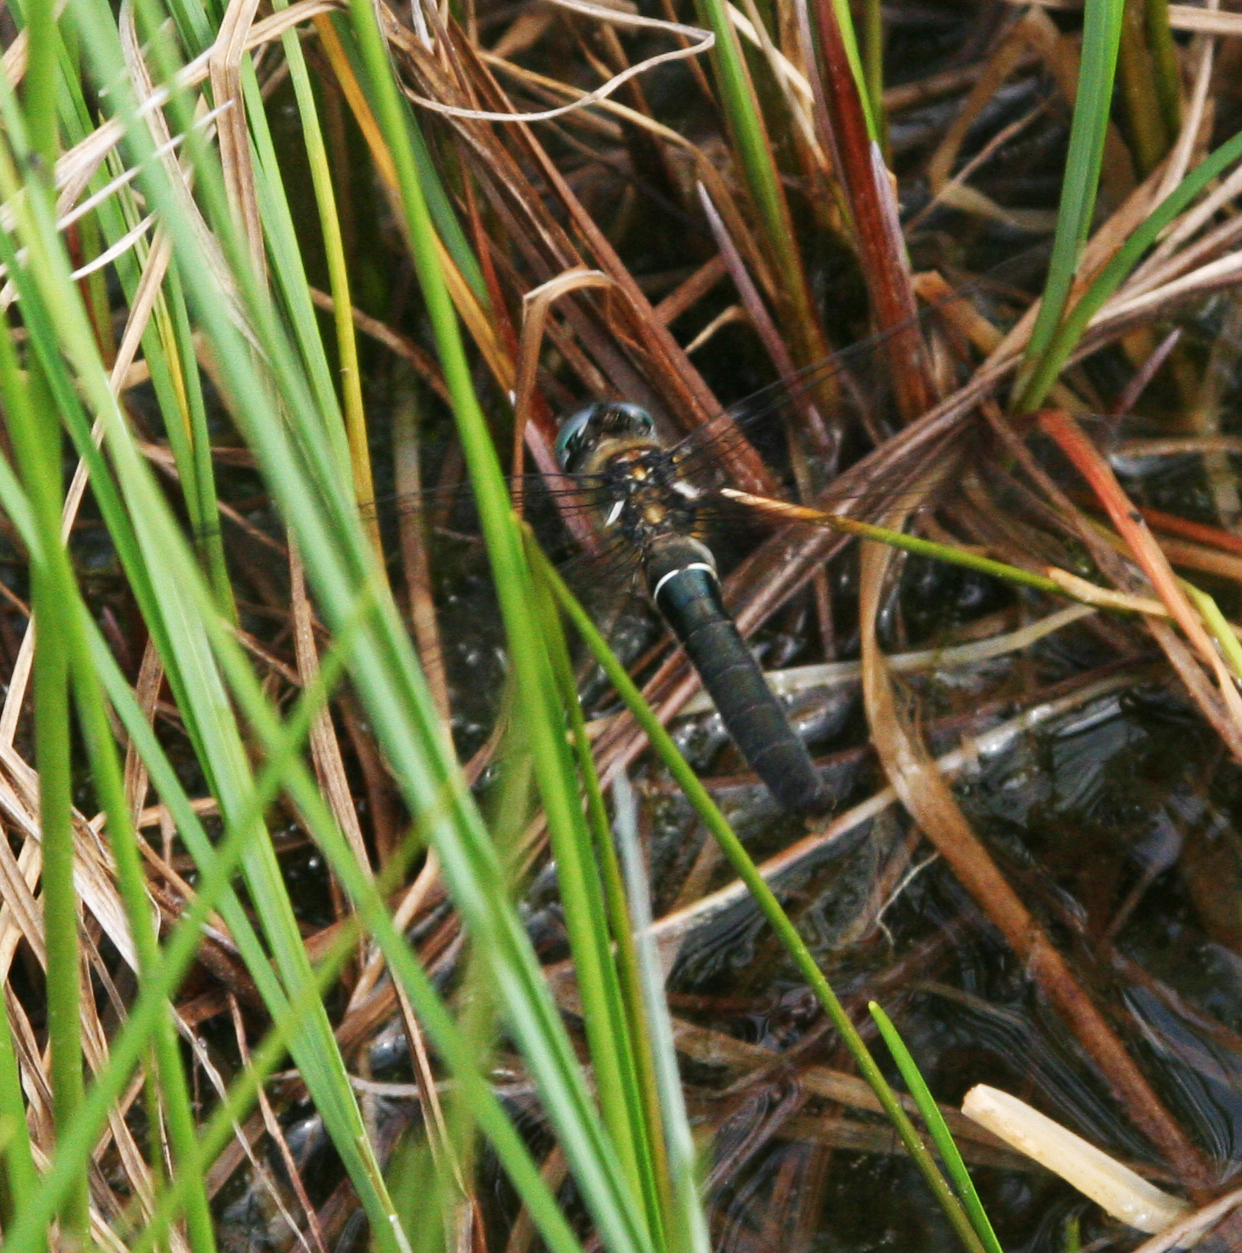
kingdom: Animalia
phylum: Arthropoda
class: Insecta
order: Odonata
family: Corduliidae
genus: Somatochlora
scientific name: Somatochlora alpestris
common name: Alpine emerald
